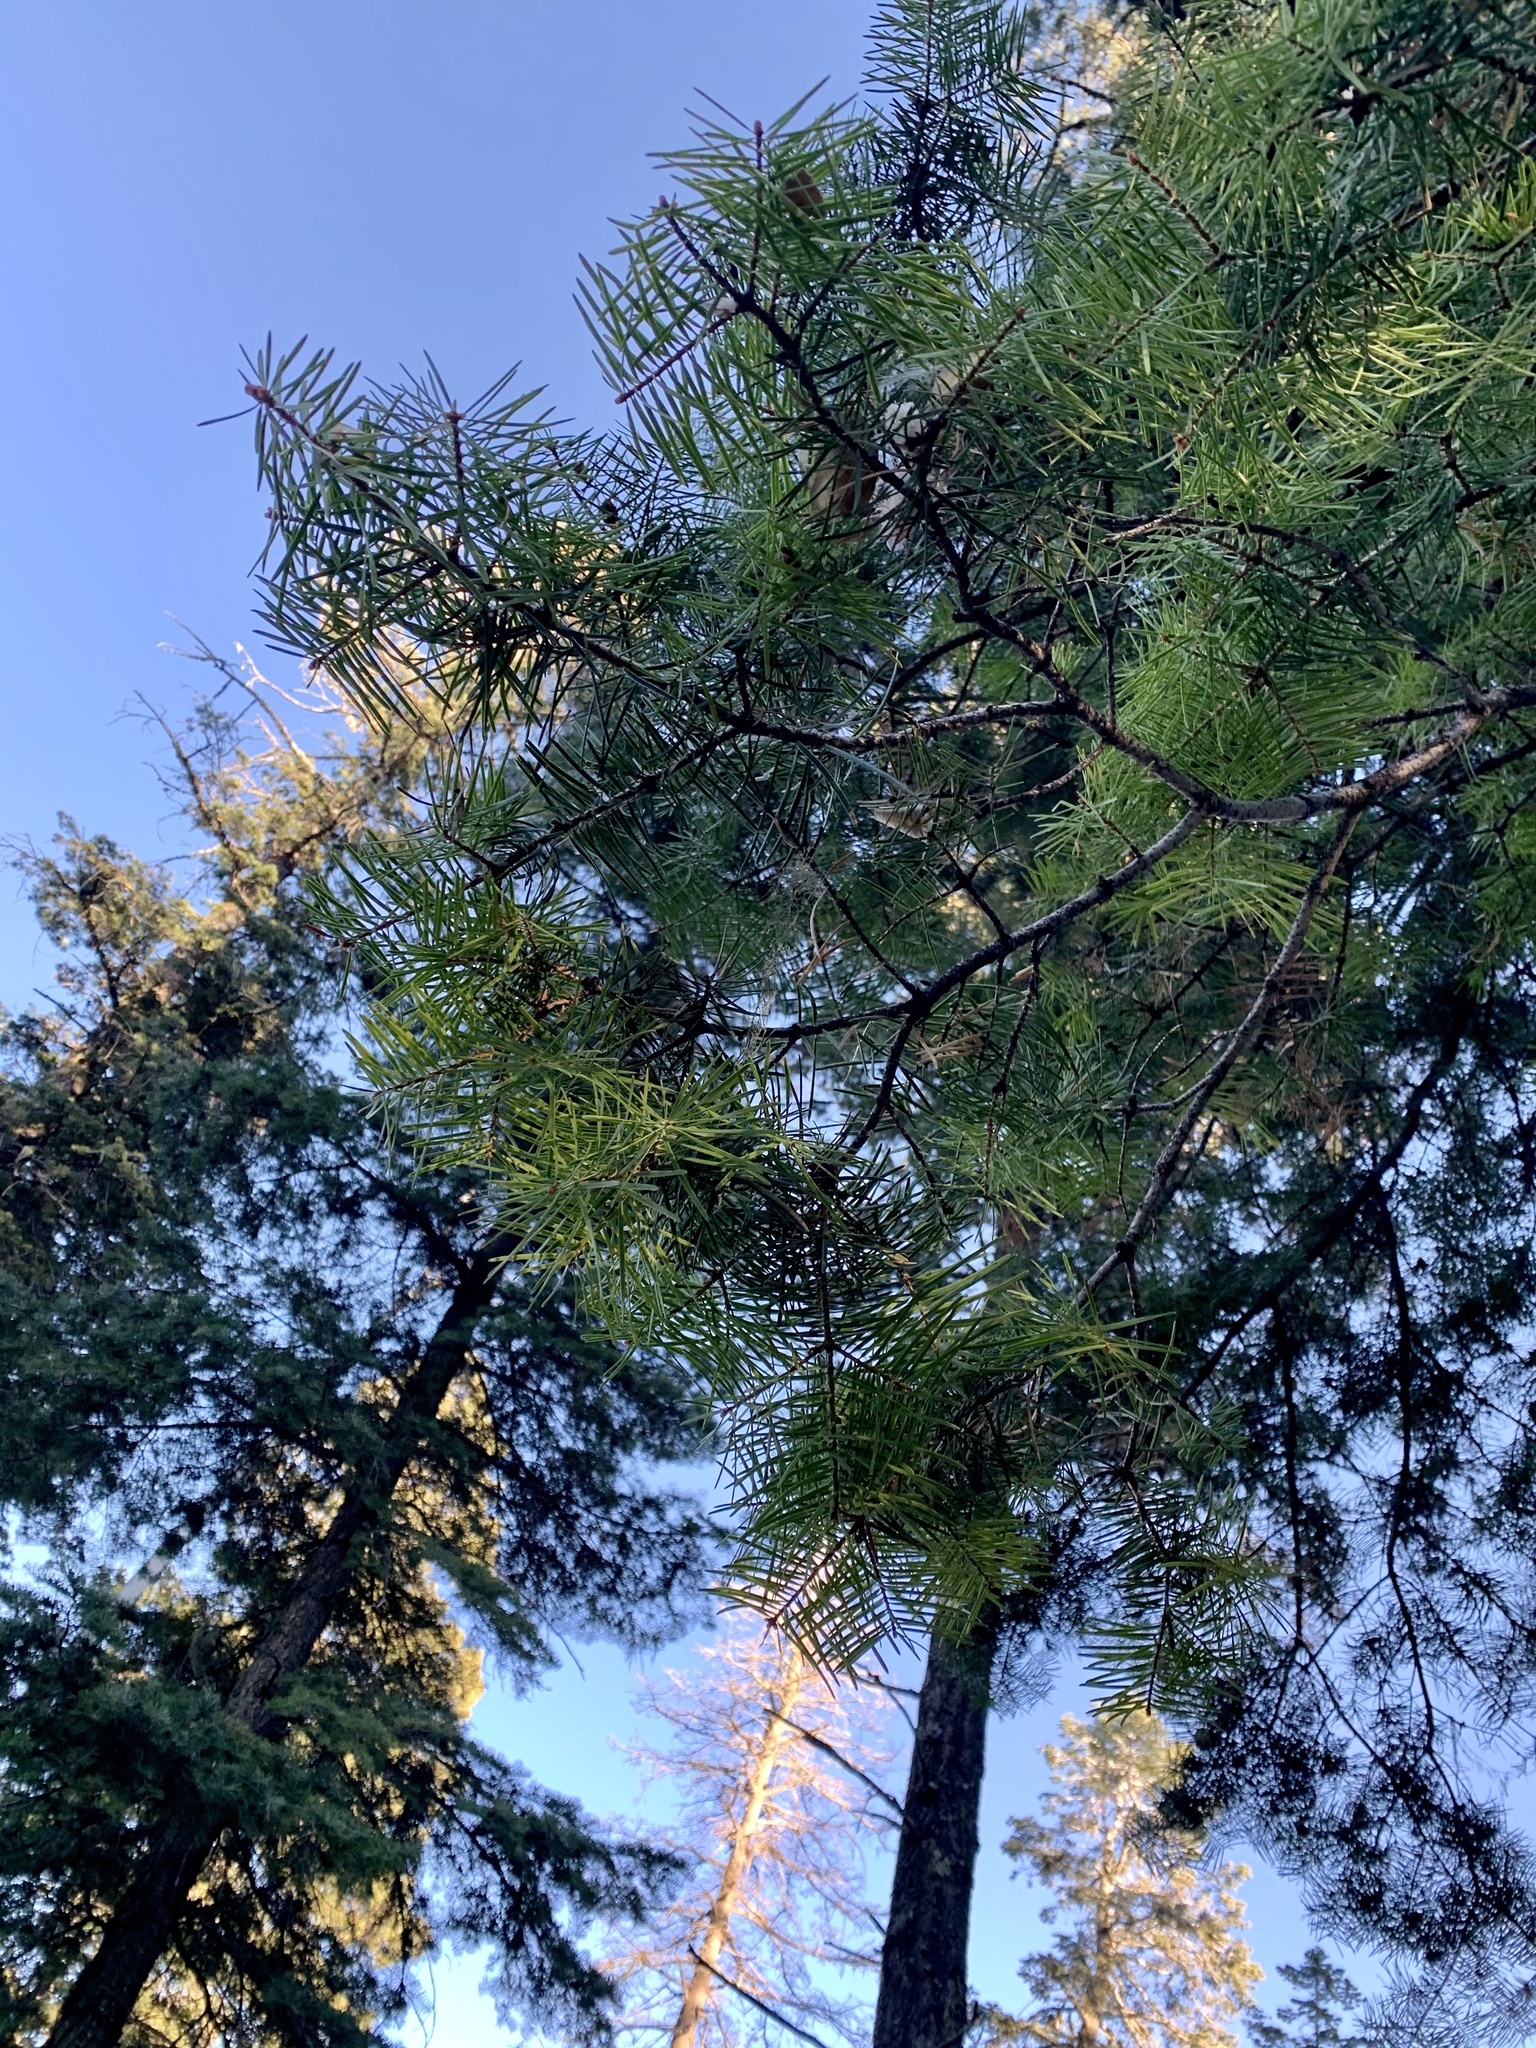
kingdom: Plantae
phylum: Tracheophyta
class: Pinopsida
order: Pinales
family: Pinaceae
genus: Abies
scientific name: Abies concolor
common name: Colorado fir
